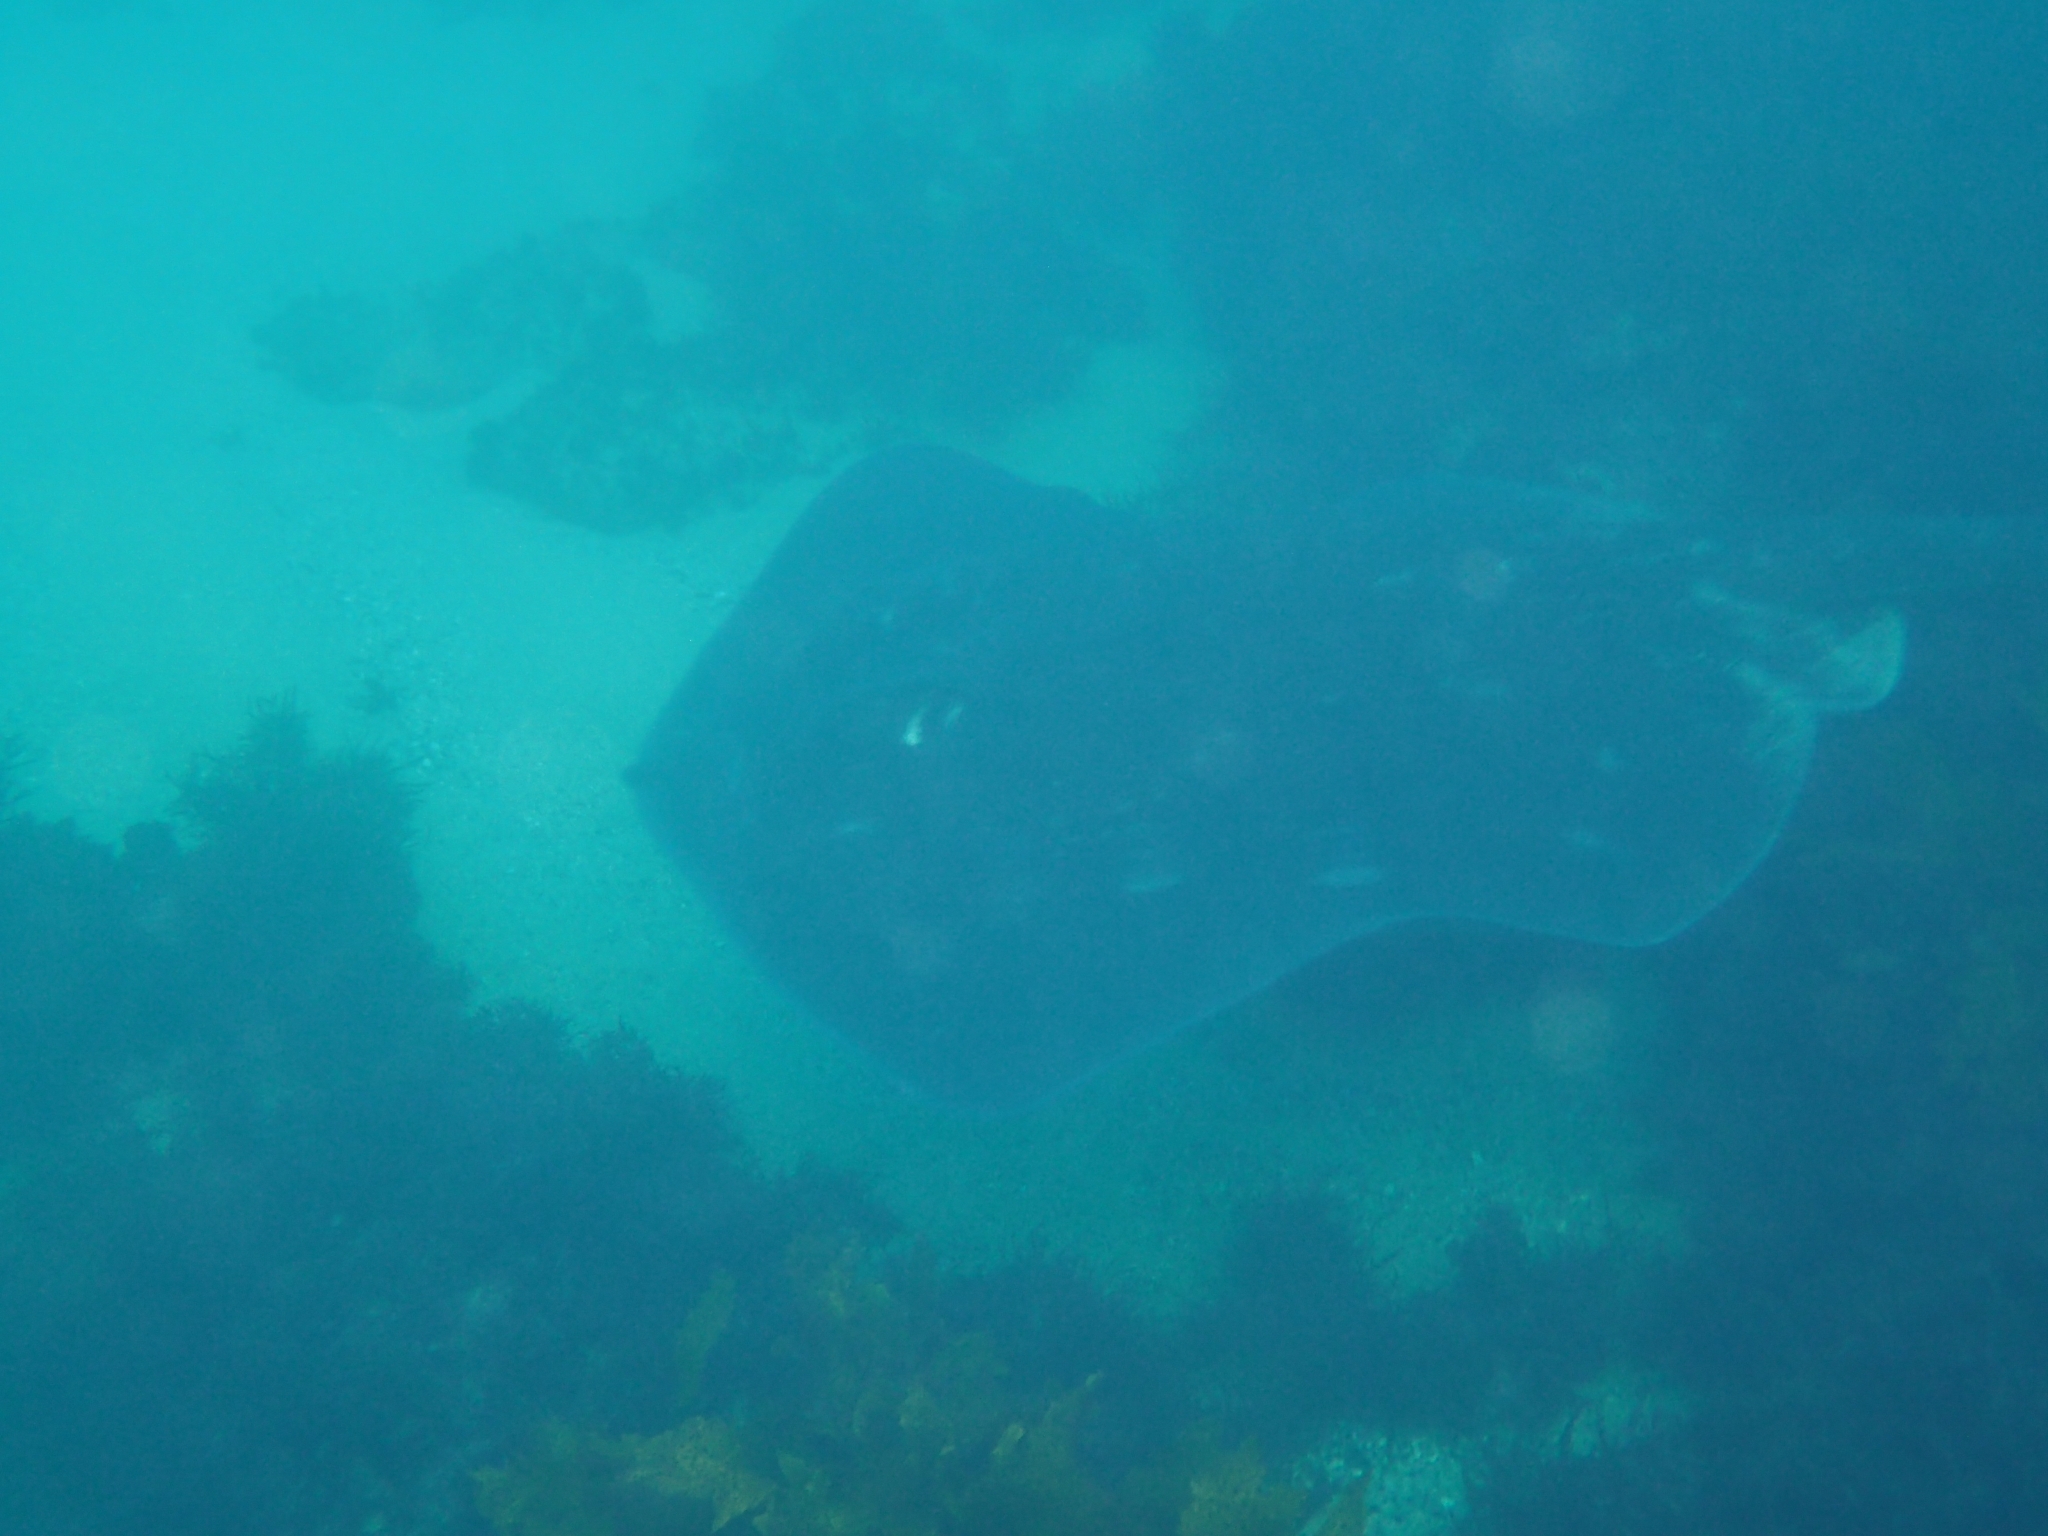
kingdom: Animalia
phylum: Chordata
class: Elasmobranchii
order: Myliobatiformes
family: Dasyatidae
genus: Bathytoshia
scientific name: Bathytoshia brevicaudata
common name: Short-tail stingray
